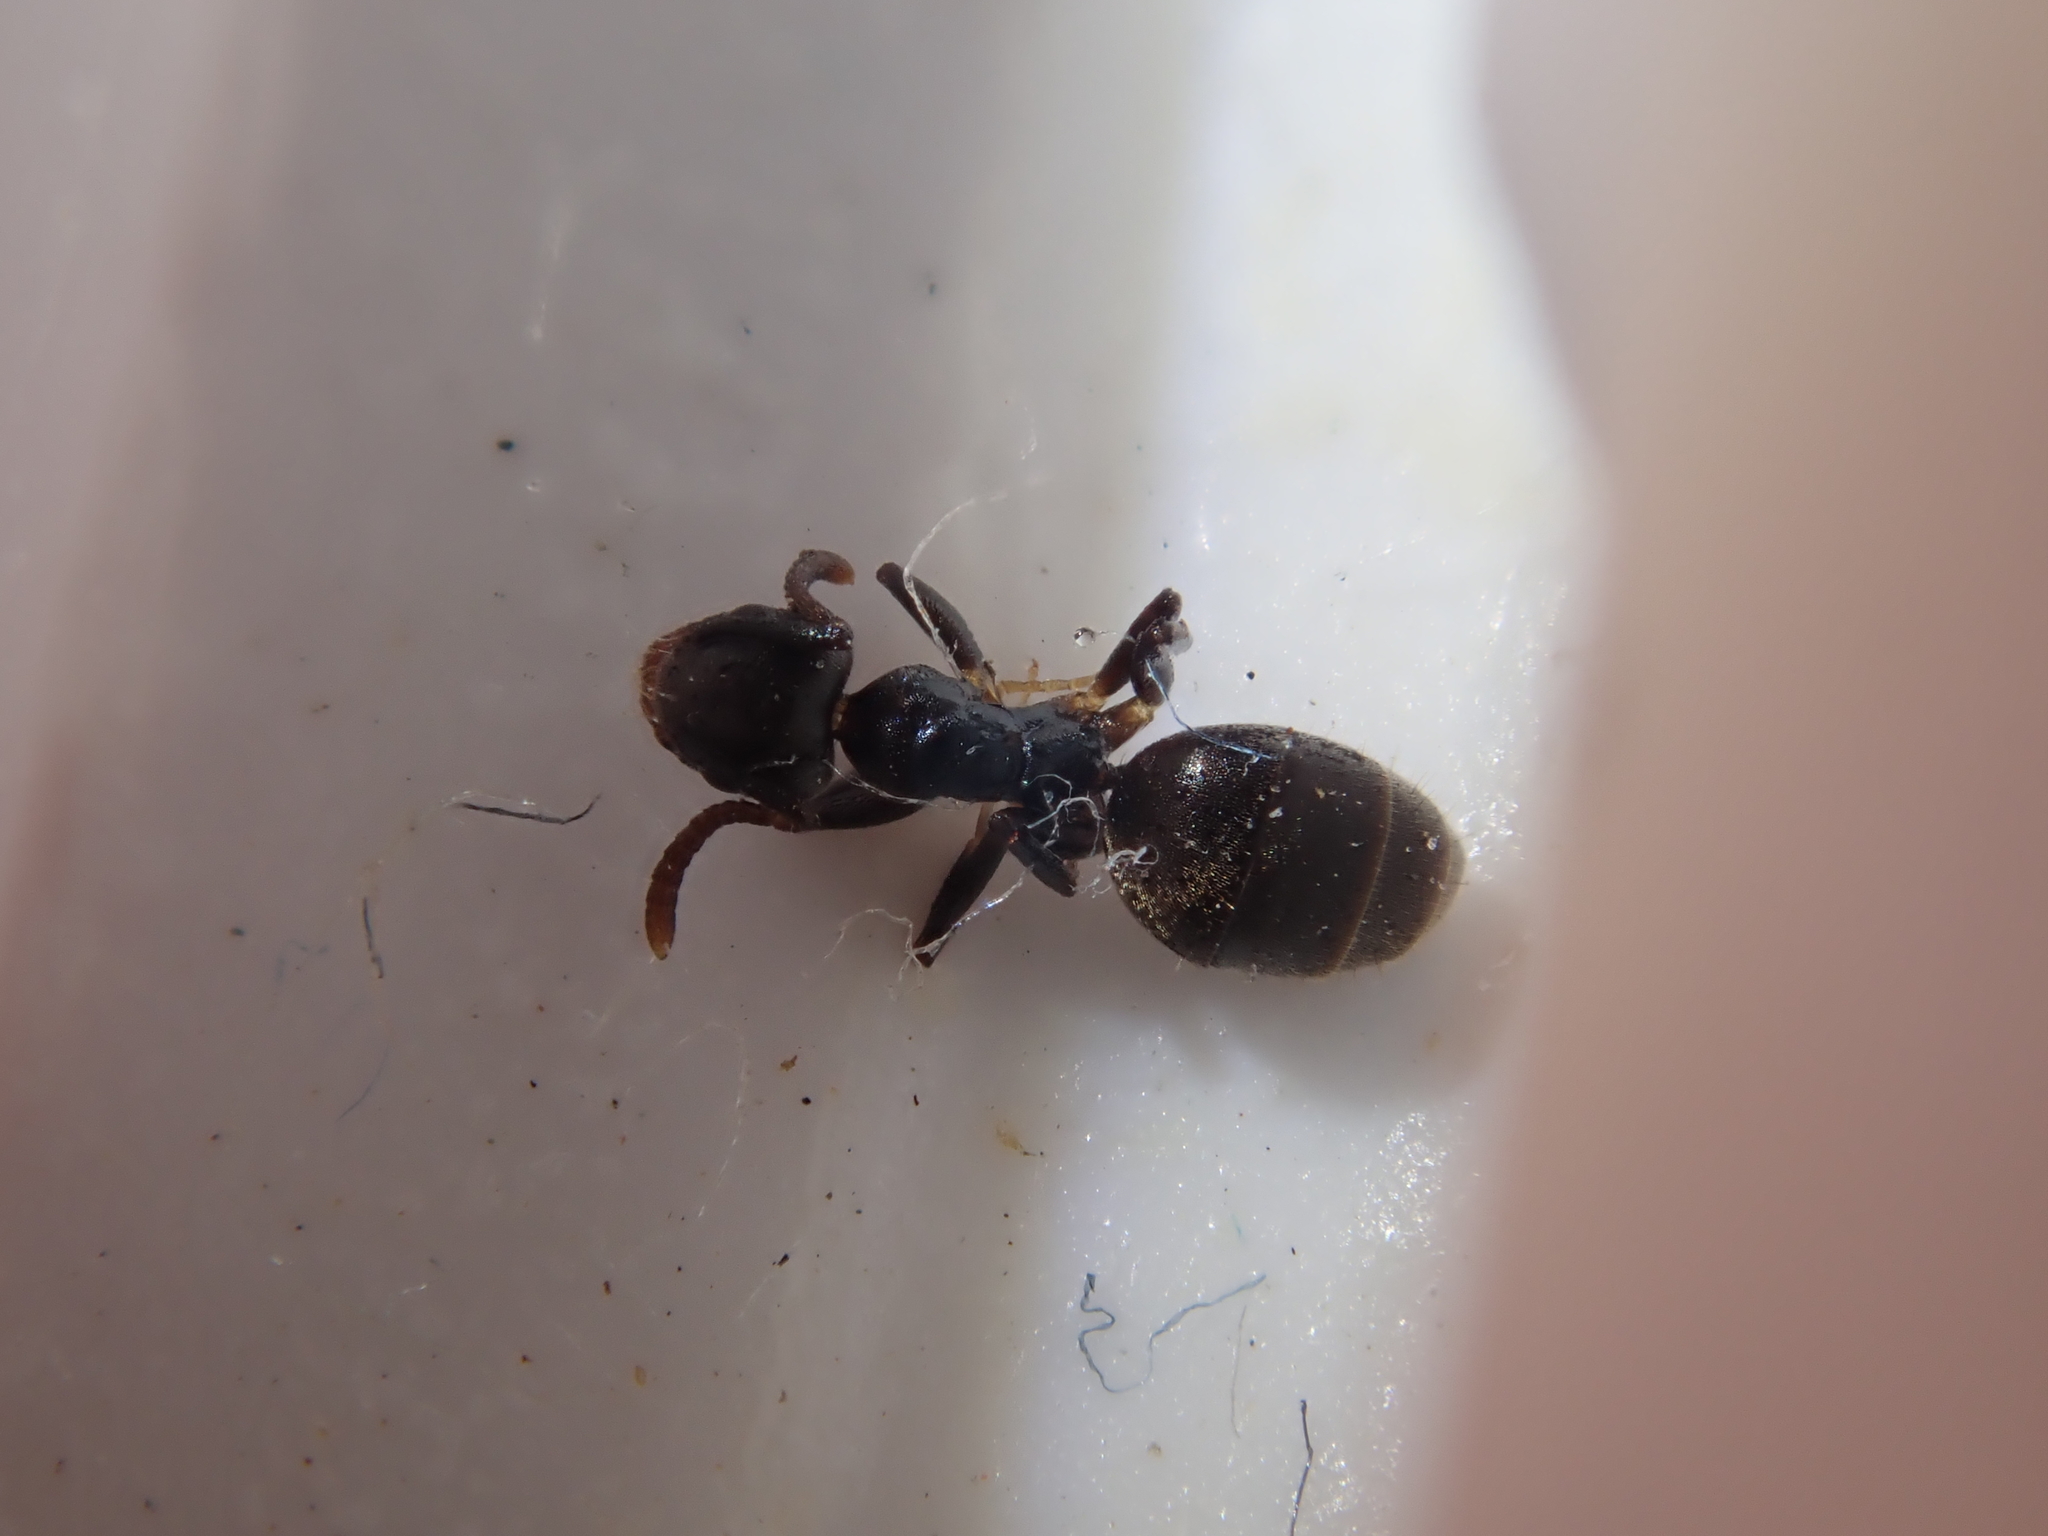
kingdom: Animalia
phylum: Arthropoda
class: Insecta
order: Hymenoptera
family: Formicidae
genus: Technomyrmex
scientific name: Technomyrmex jocosus
